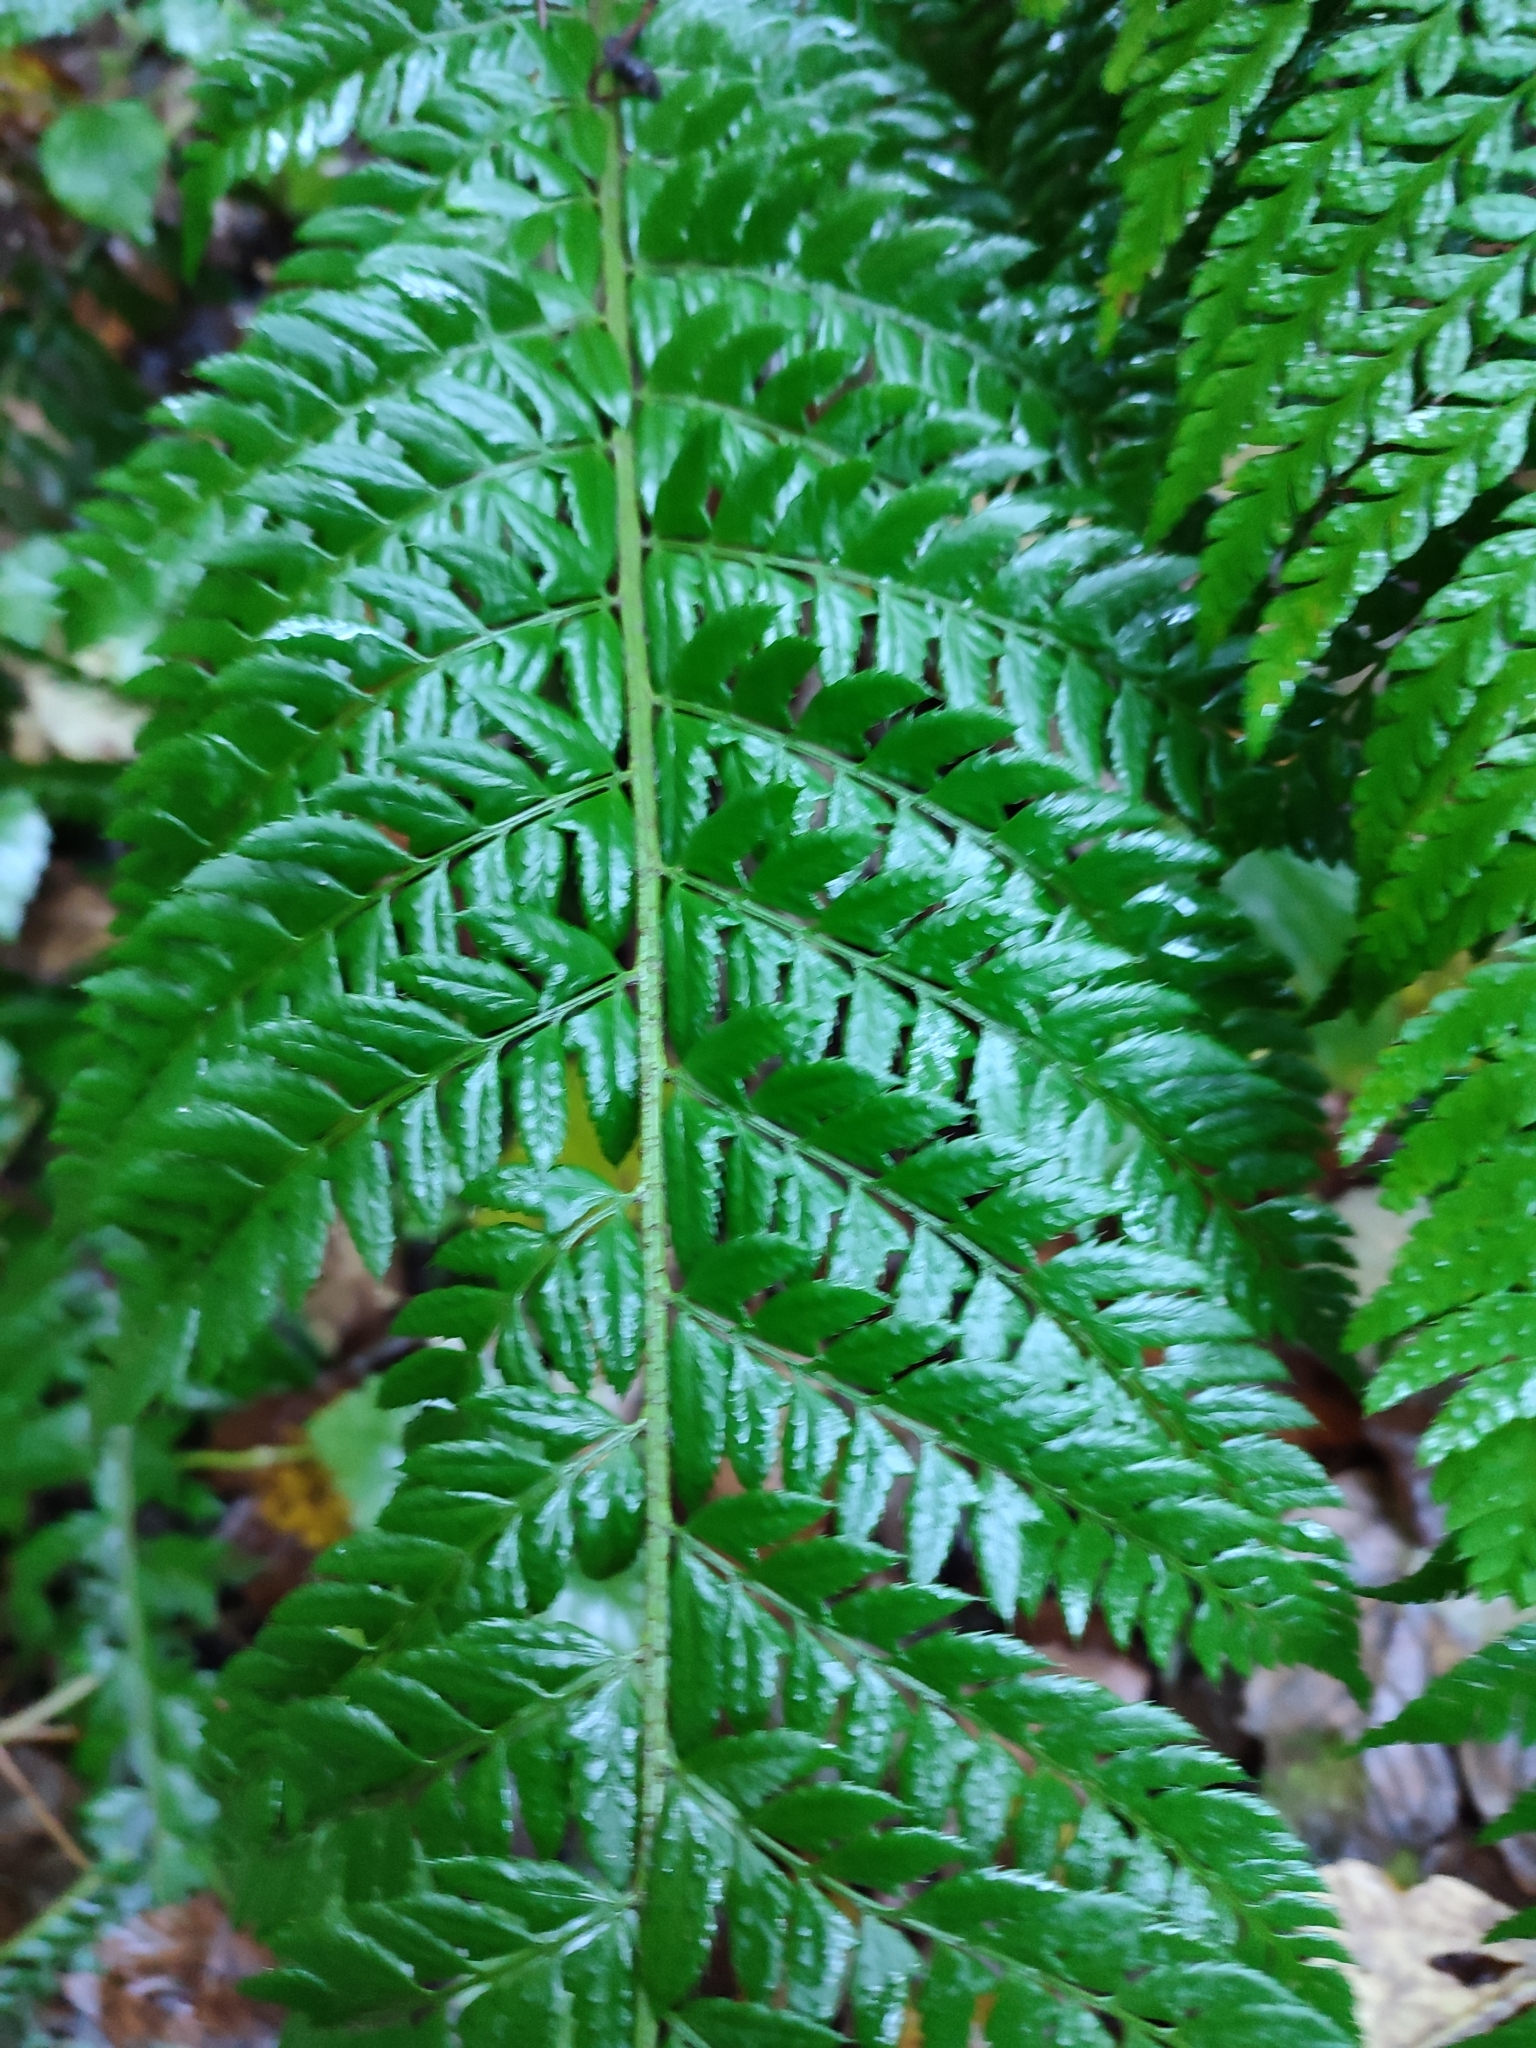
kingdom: Plantae
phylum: Tracheophyta
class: Polypodiopsida
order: Polypodiales
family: Dryopteridaceae
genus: Polystichum
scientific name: Polystichum aculeatum
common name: Hard shield-fern
